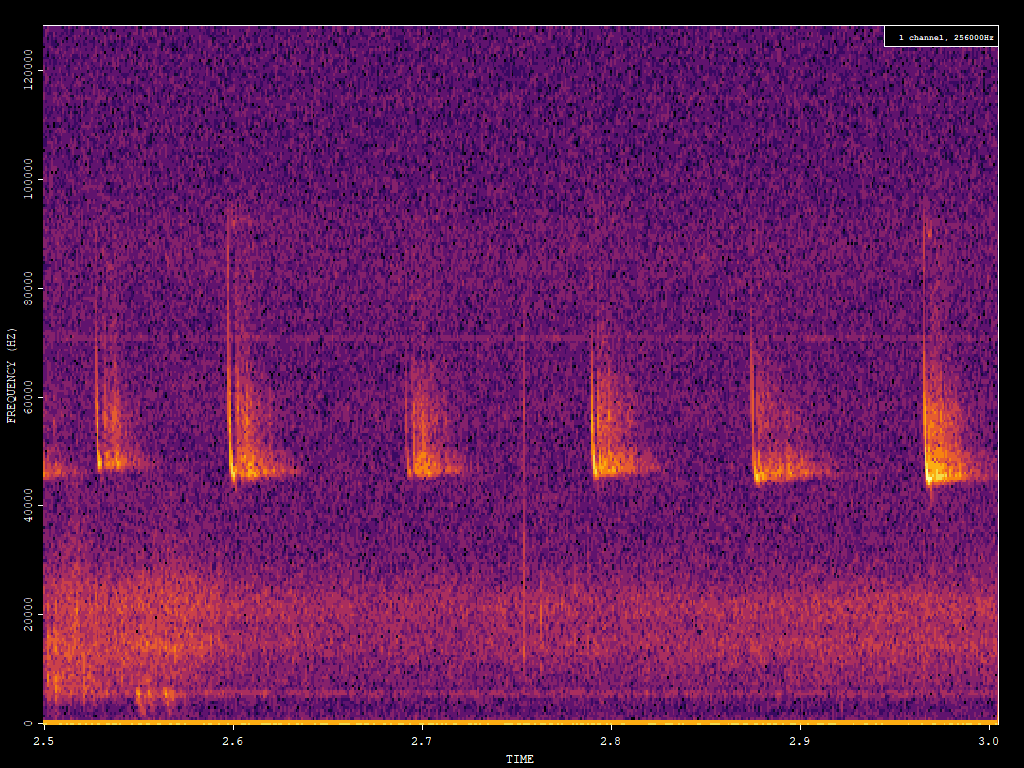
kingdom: Animalia
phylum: Chordata
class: Mammalia
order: Chiroptera
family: Vespertilionidae
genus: Pipistrellus
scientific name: Pipistrellus pipistrellus
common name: Common pipistrelle
